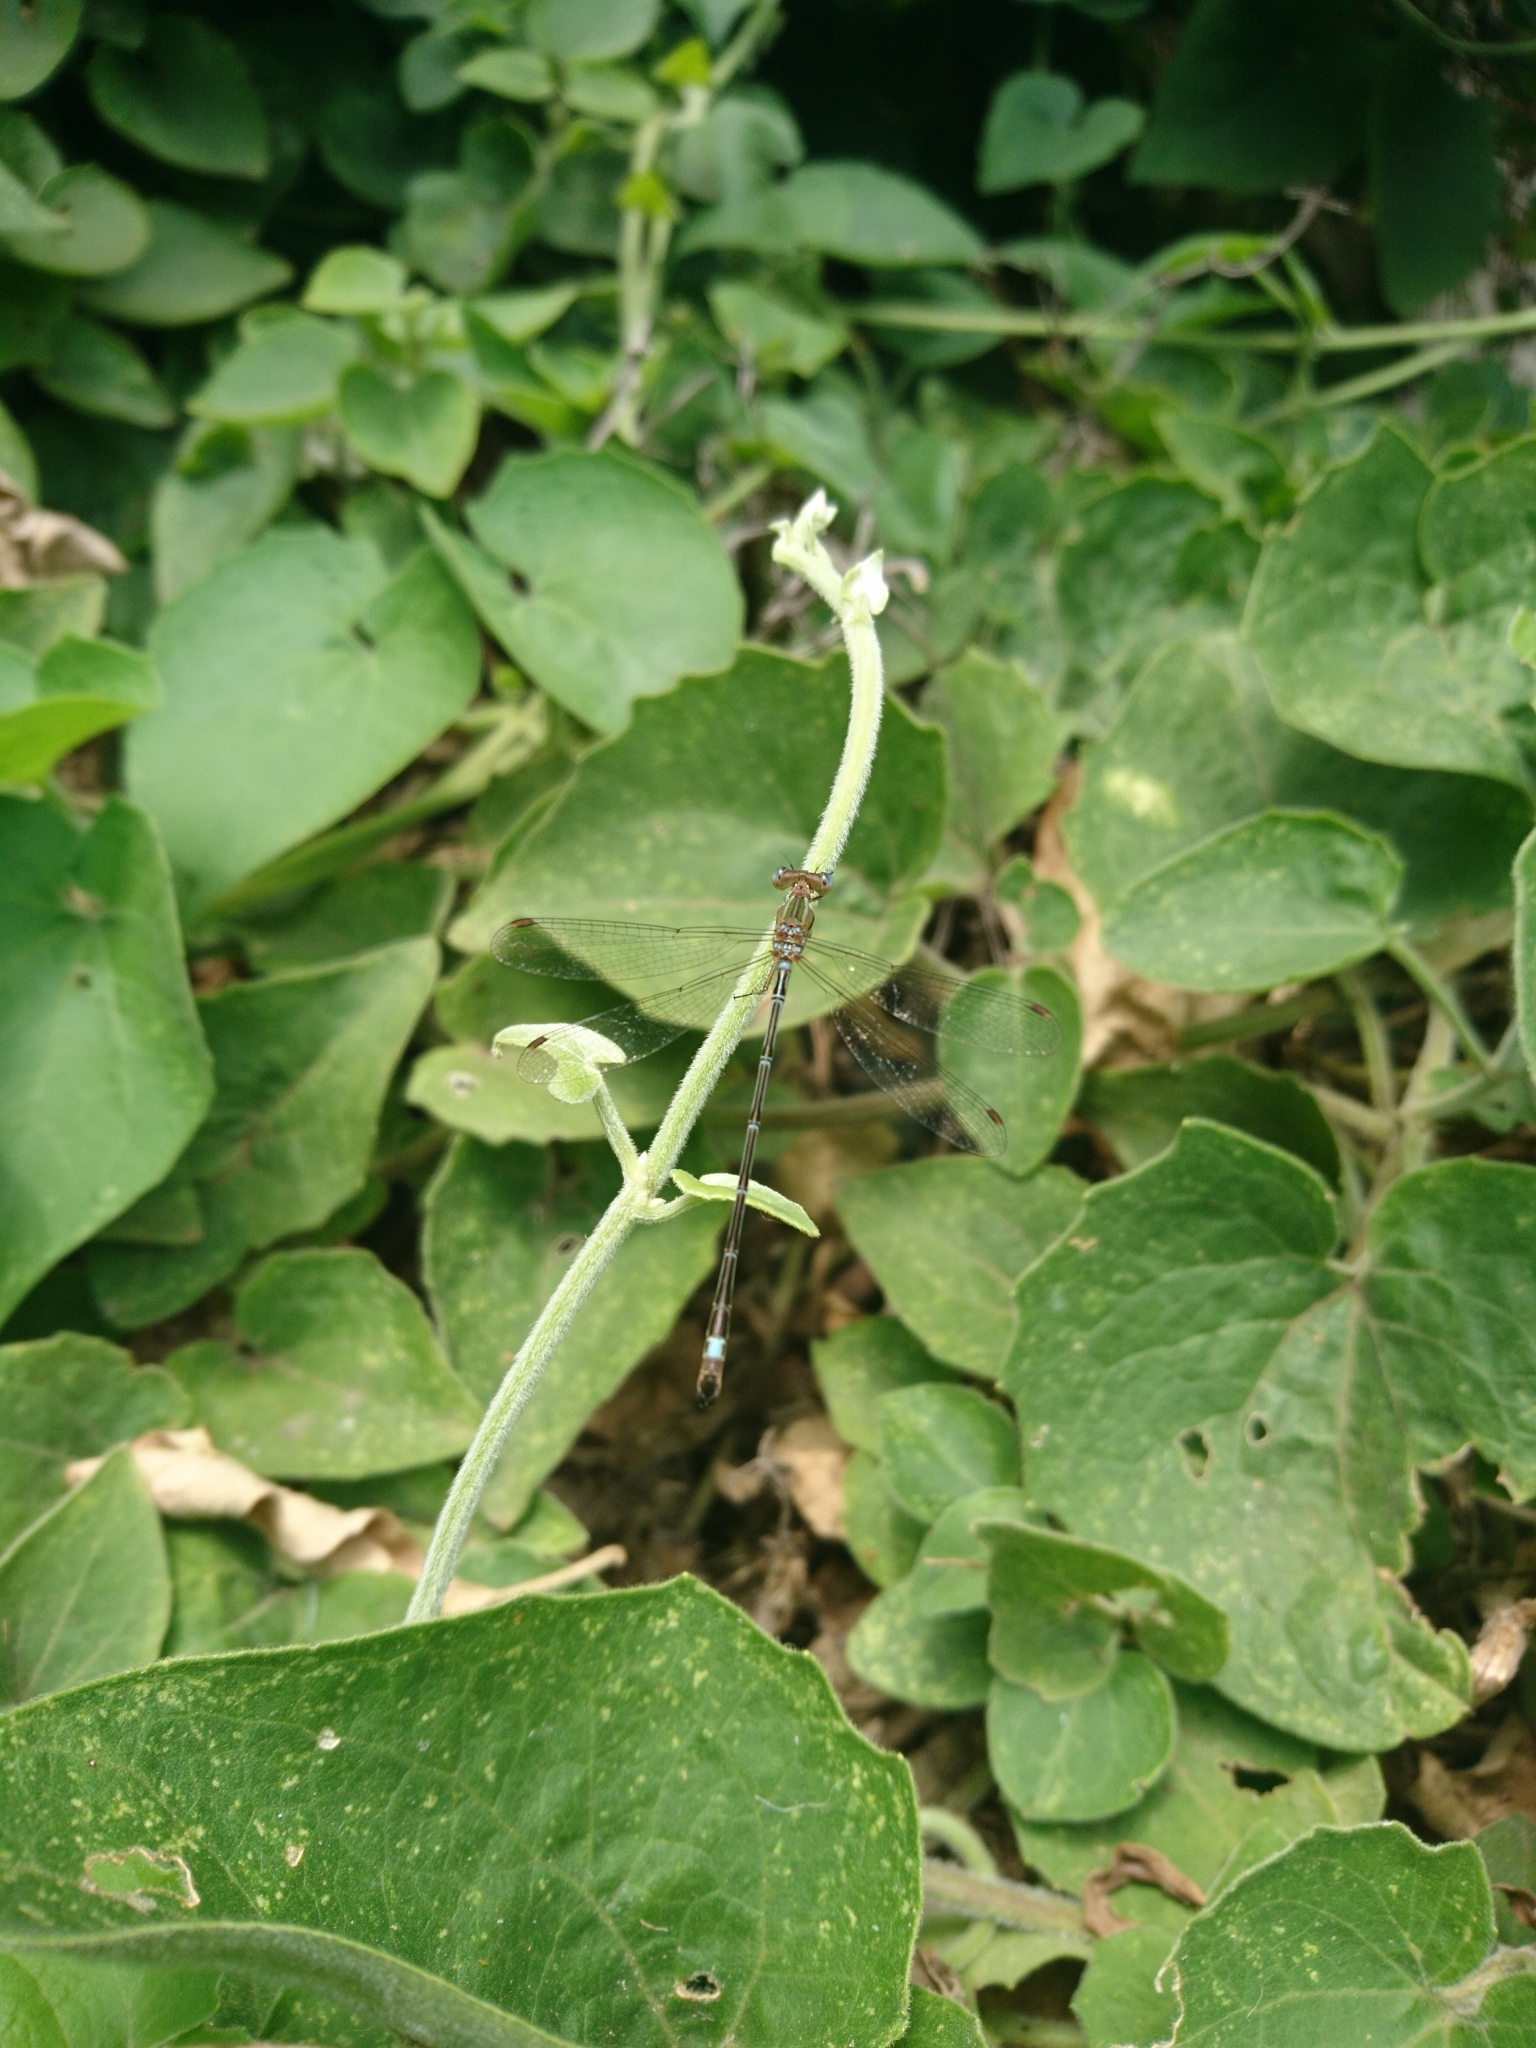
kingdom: Animalia
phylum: Arthropoda
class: Insecta
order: Odonata
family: Lestidae
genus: Lestes
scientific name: Lestes undulatus
